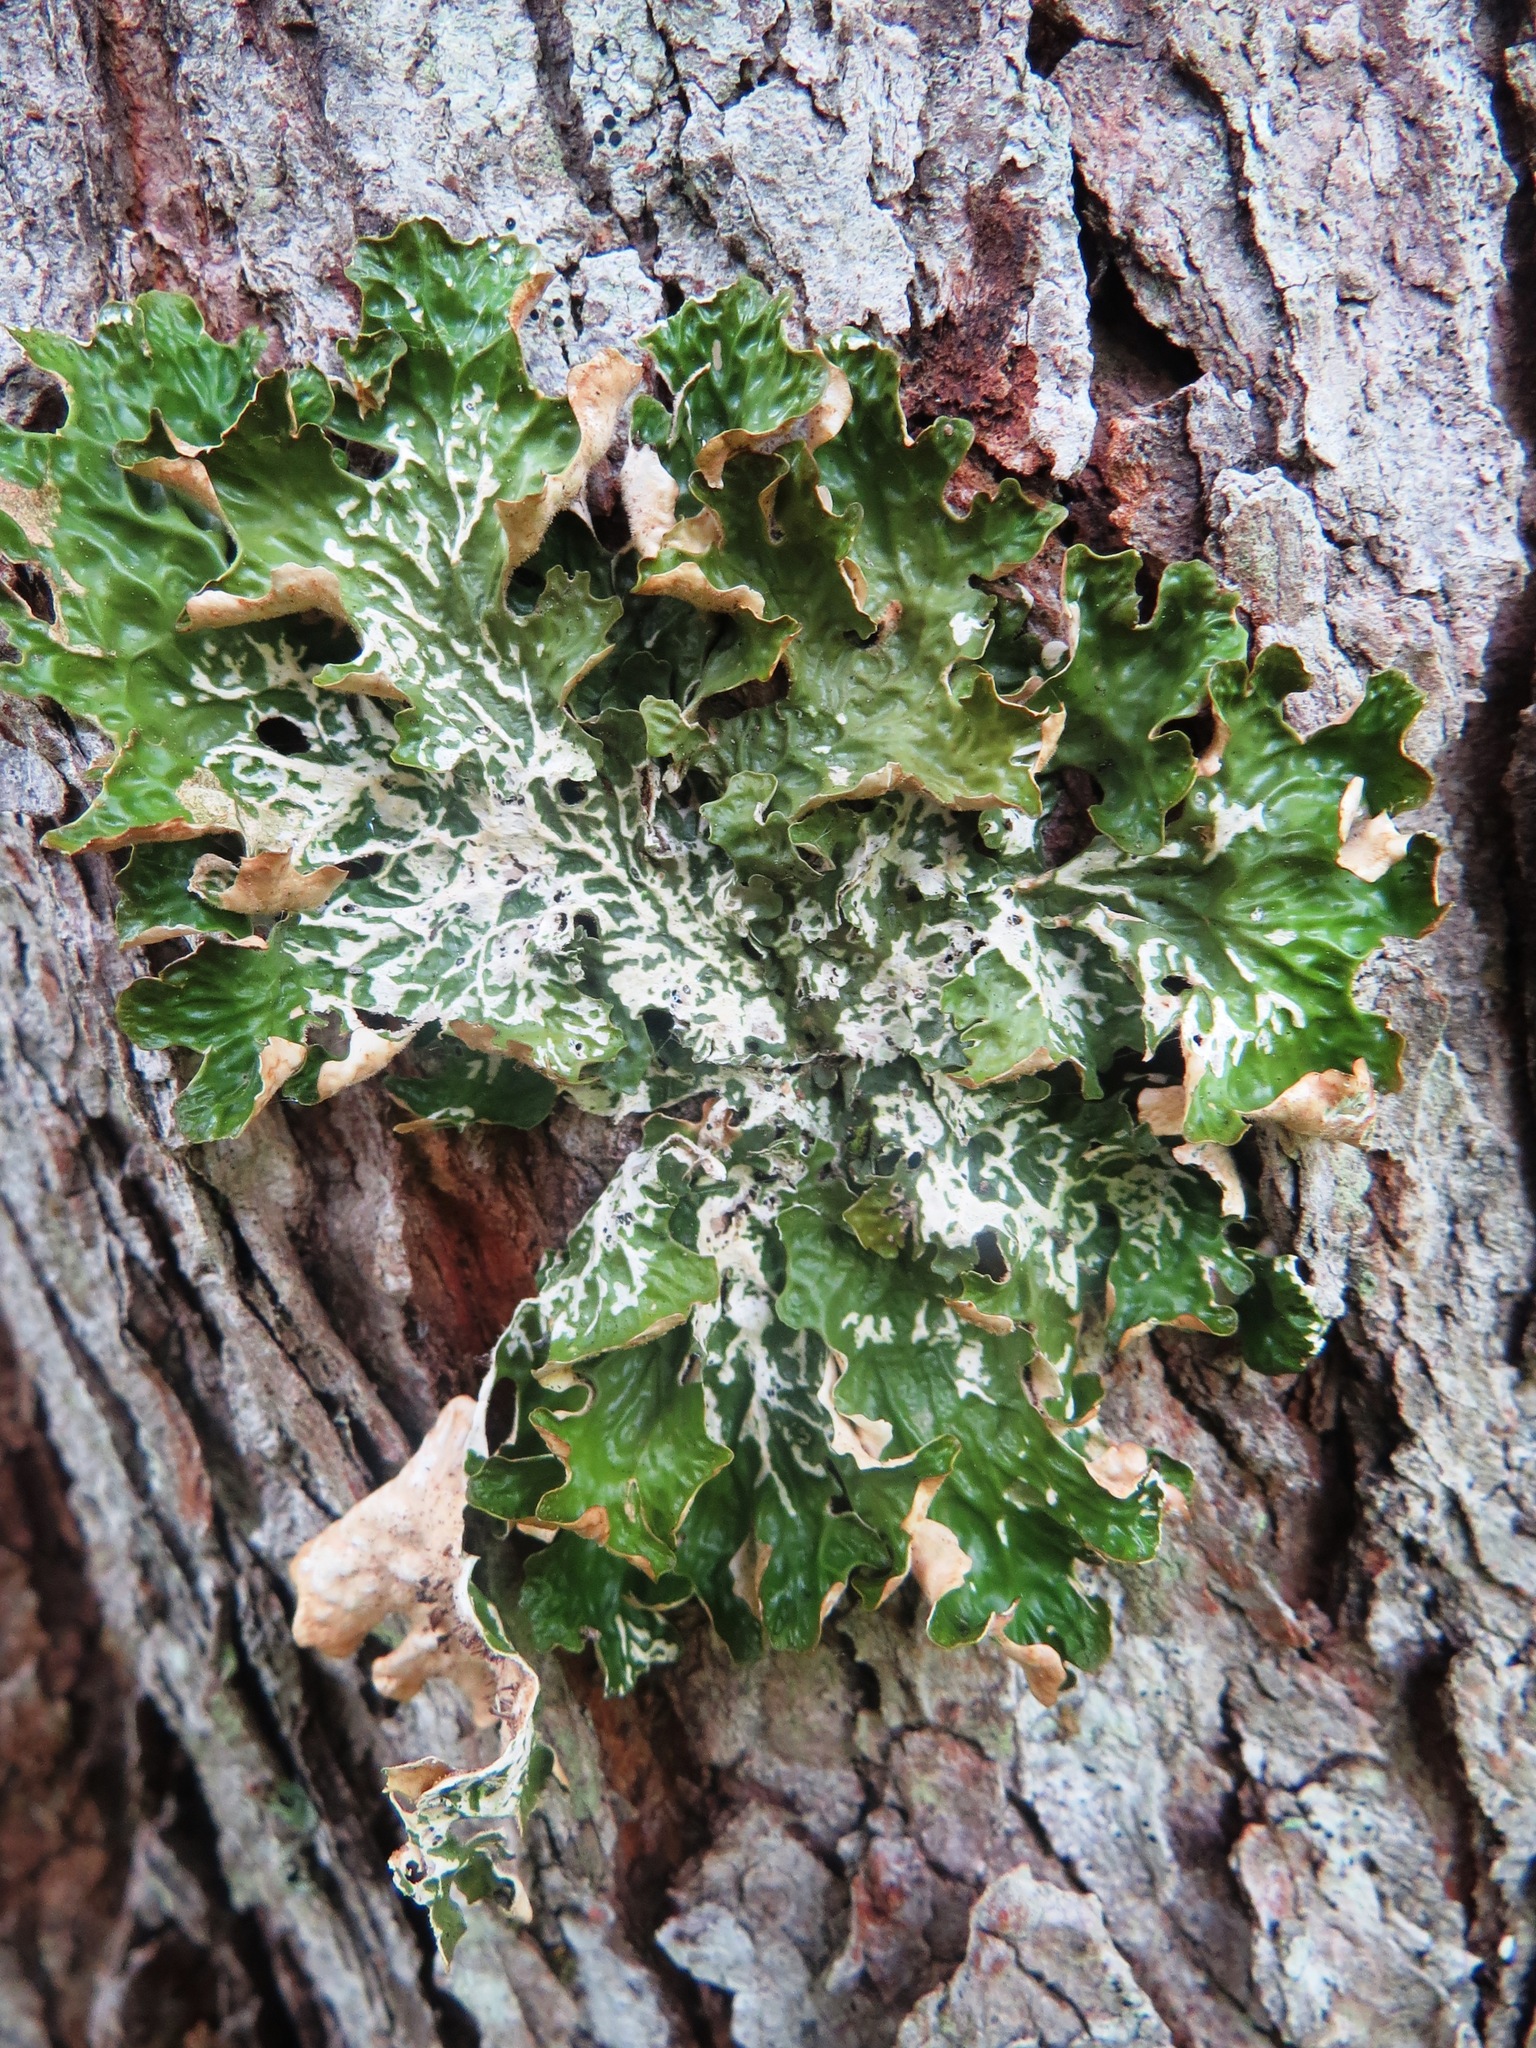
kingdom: Fungi
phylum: Ascomycota
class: Lecanoromycetes
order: Peltigerales
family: Lobariaceae
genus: Lobaria
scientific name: Lobaria pulmonaria
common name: Lungwort
